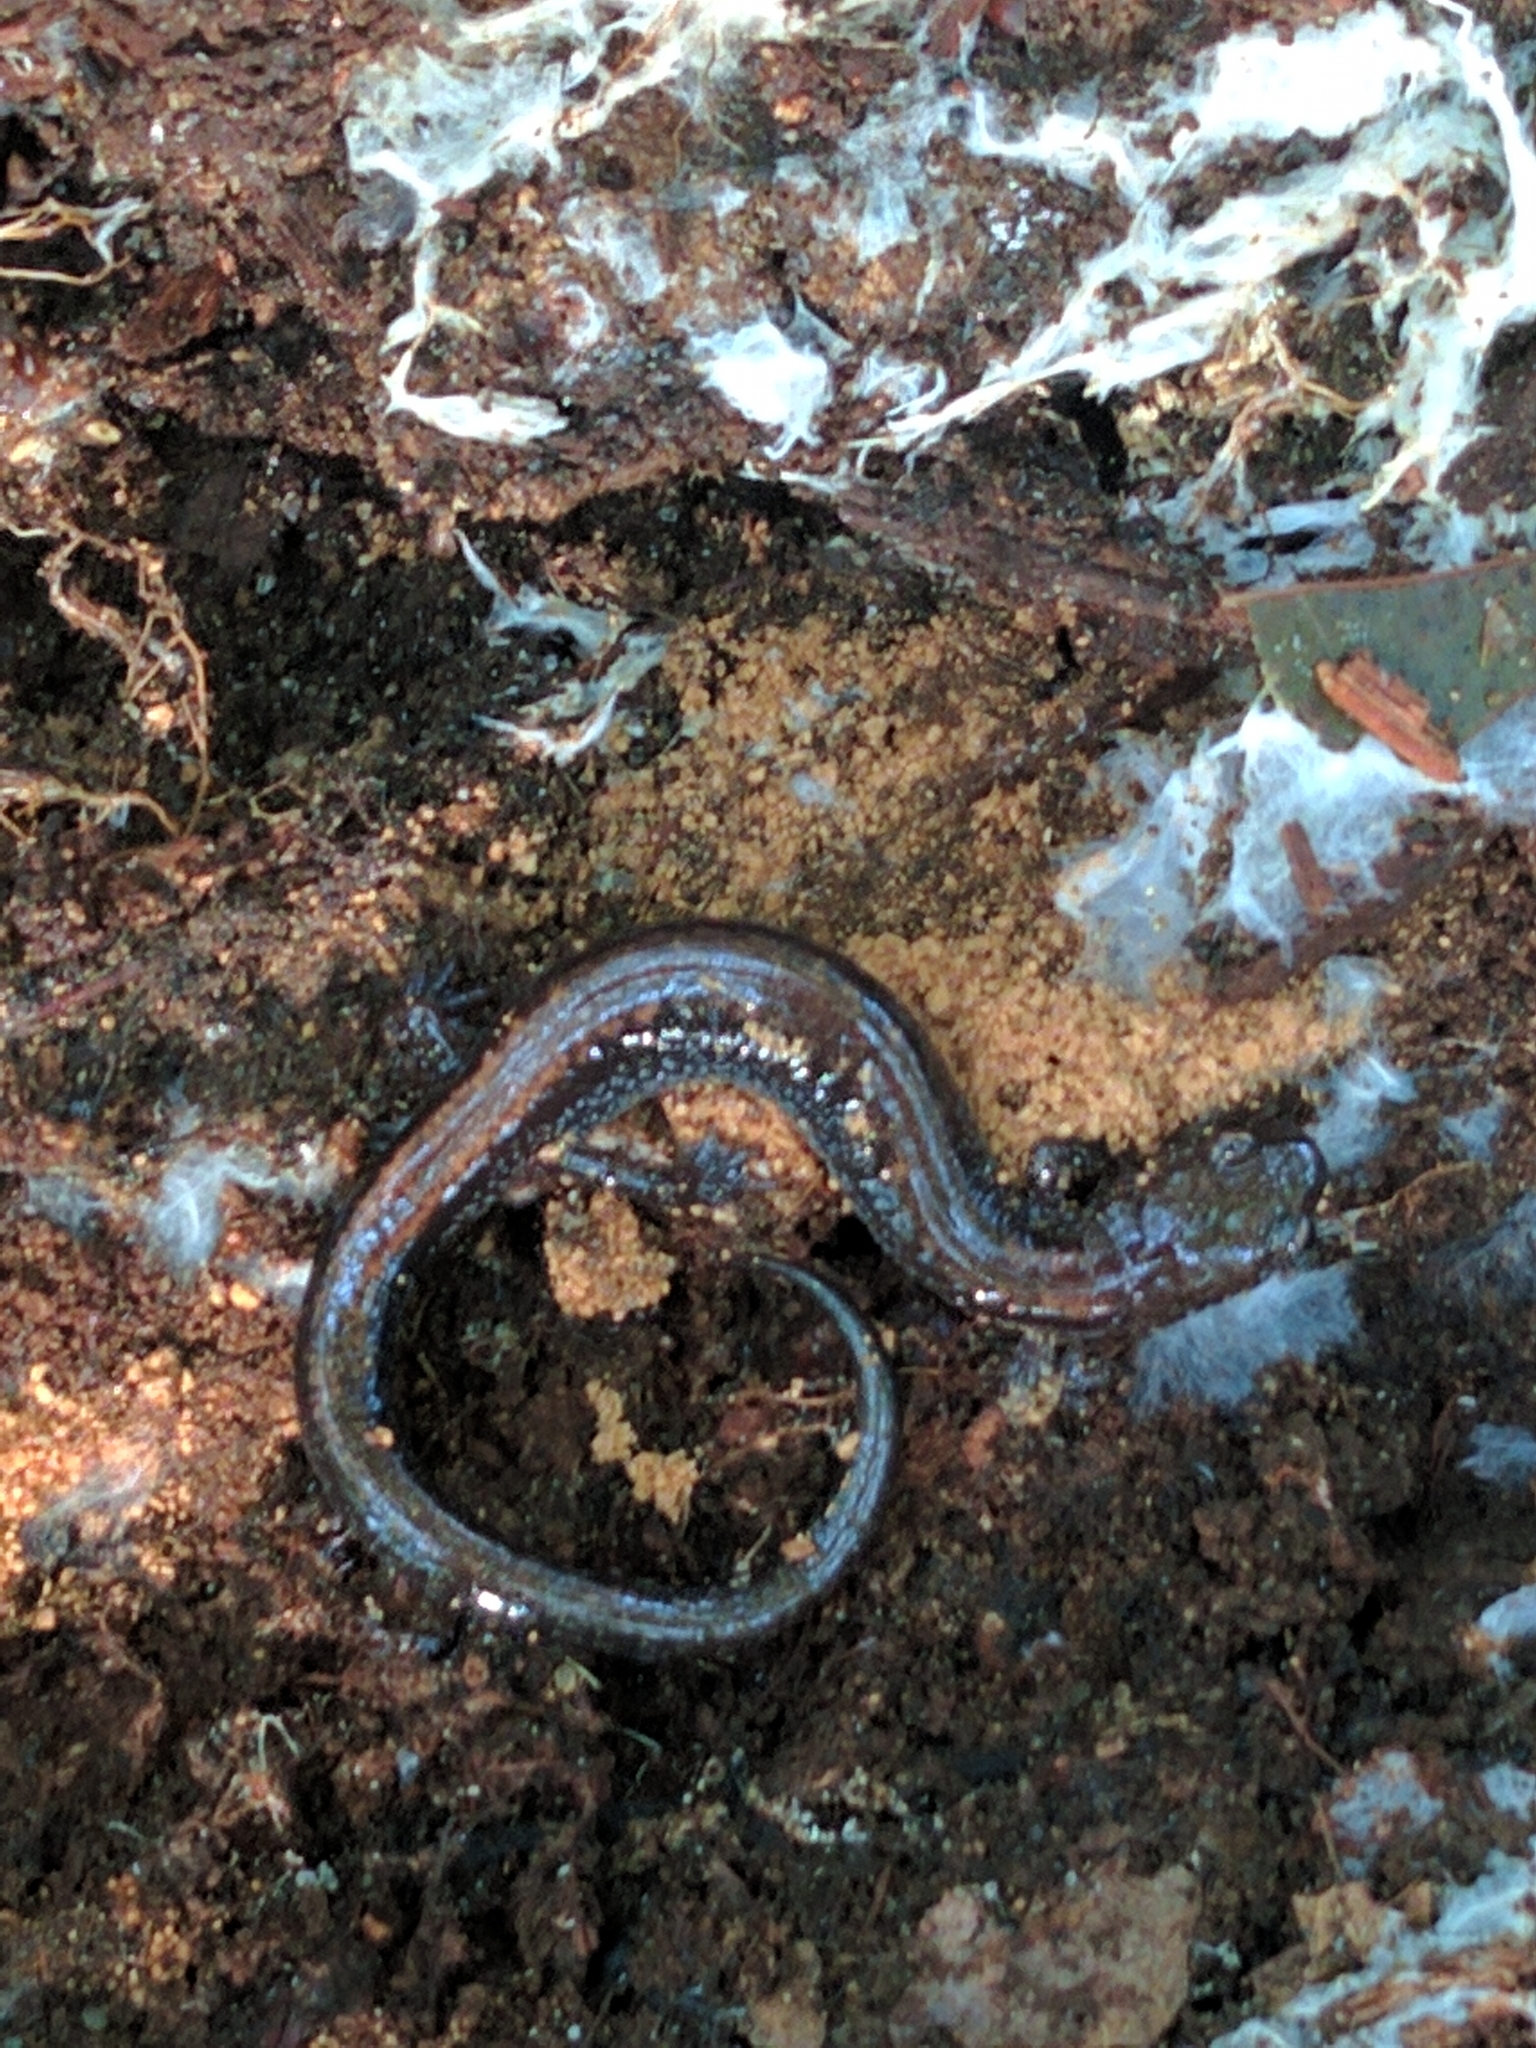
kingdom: Animalia
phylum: Chordata
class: Amphibia
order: Caudata
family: Plethodontidae
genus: Plethodon
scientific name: Plethodon cinereus
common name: Redback salamander
